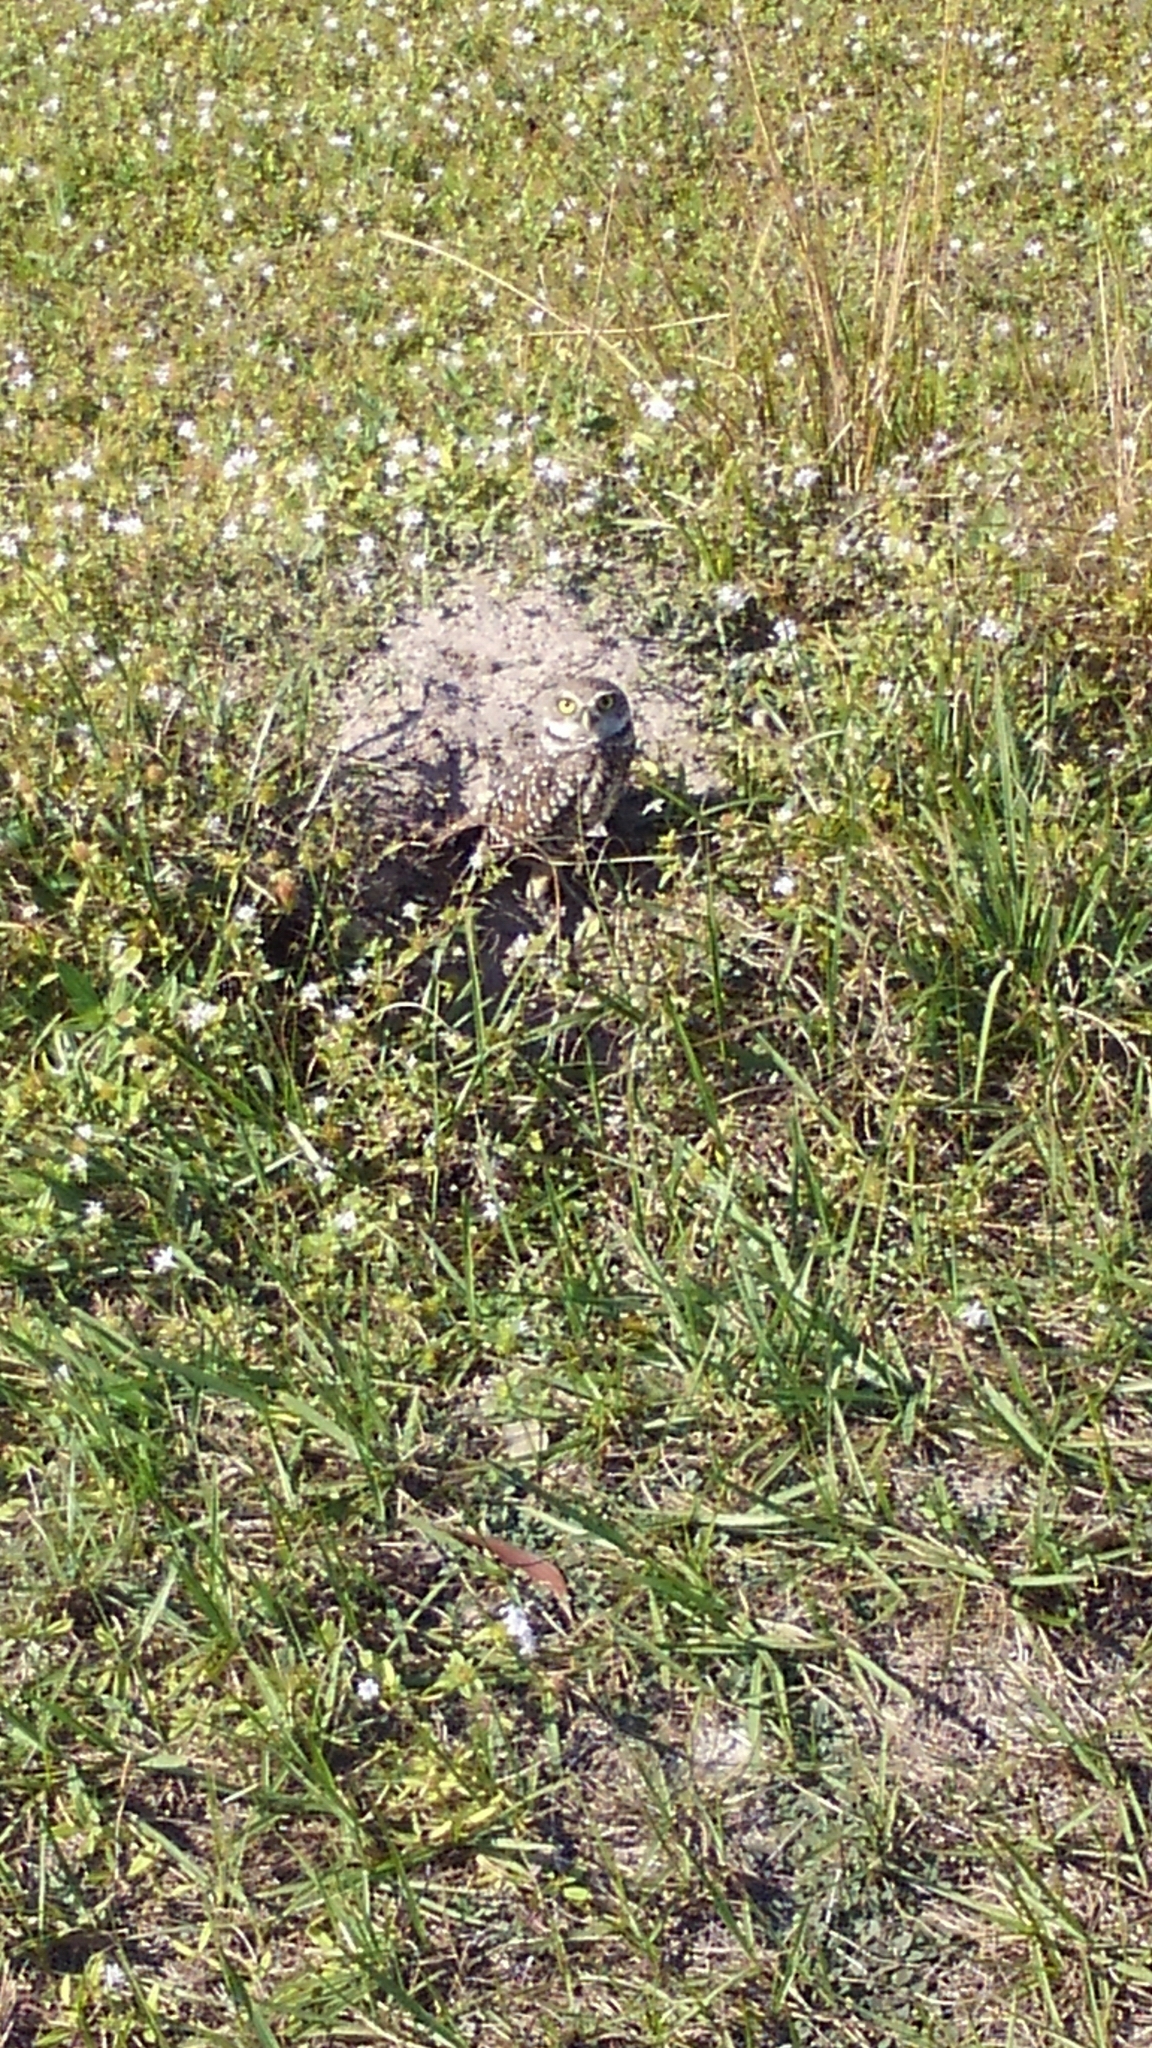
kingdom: Animalia
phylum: Chordata
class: Aves
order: Strigiformes
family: Strigidae
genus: Athene
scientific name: Athene cunicularia
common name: Burrowing owl
